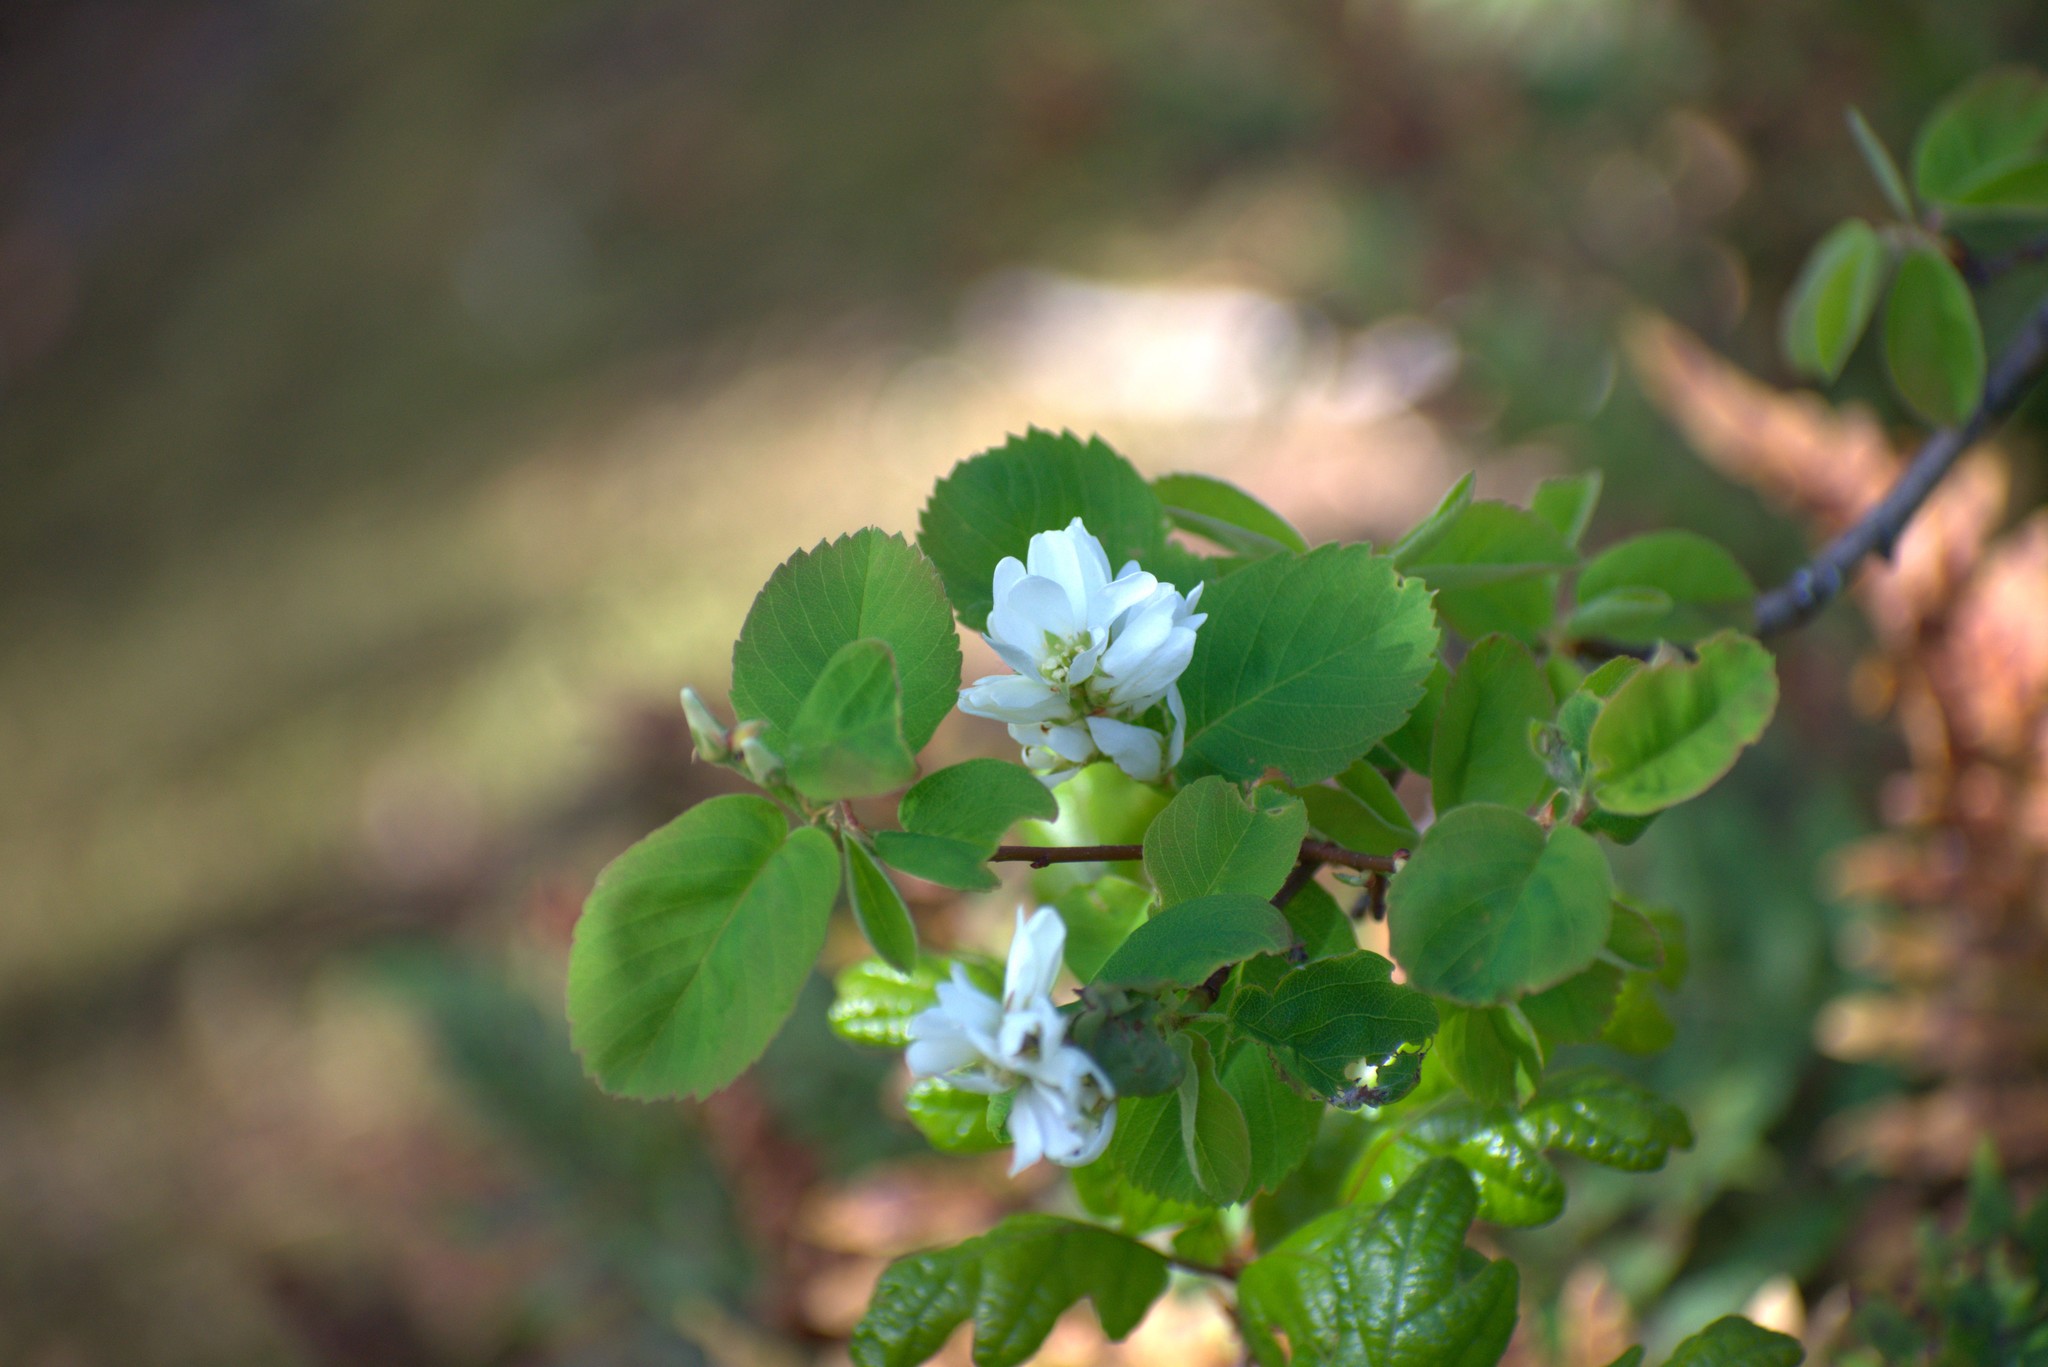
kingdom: Plantae
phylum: Tracheophyta
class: Magnoliopsida
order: Rosales
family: Rosaceae
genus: Amelanchier
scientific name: Amelanchier alnifolia
